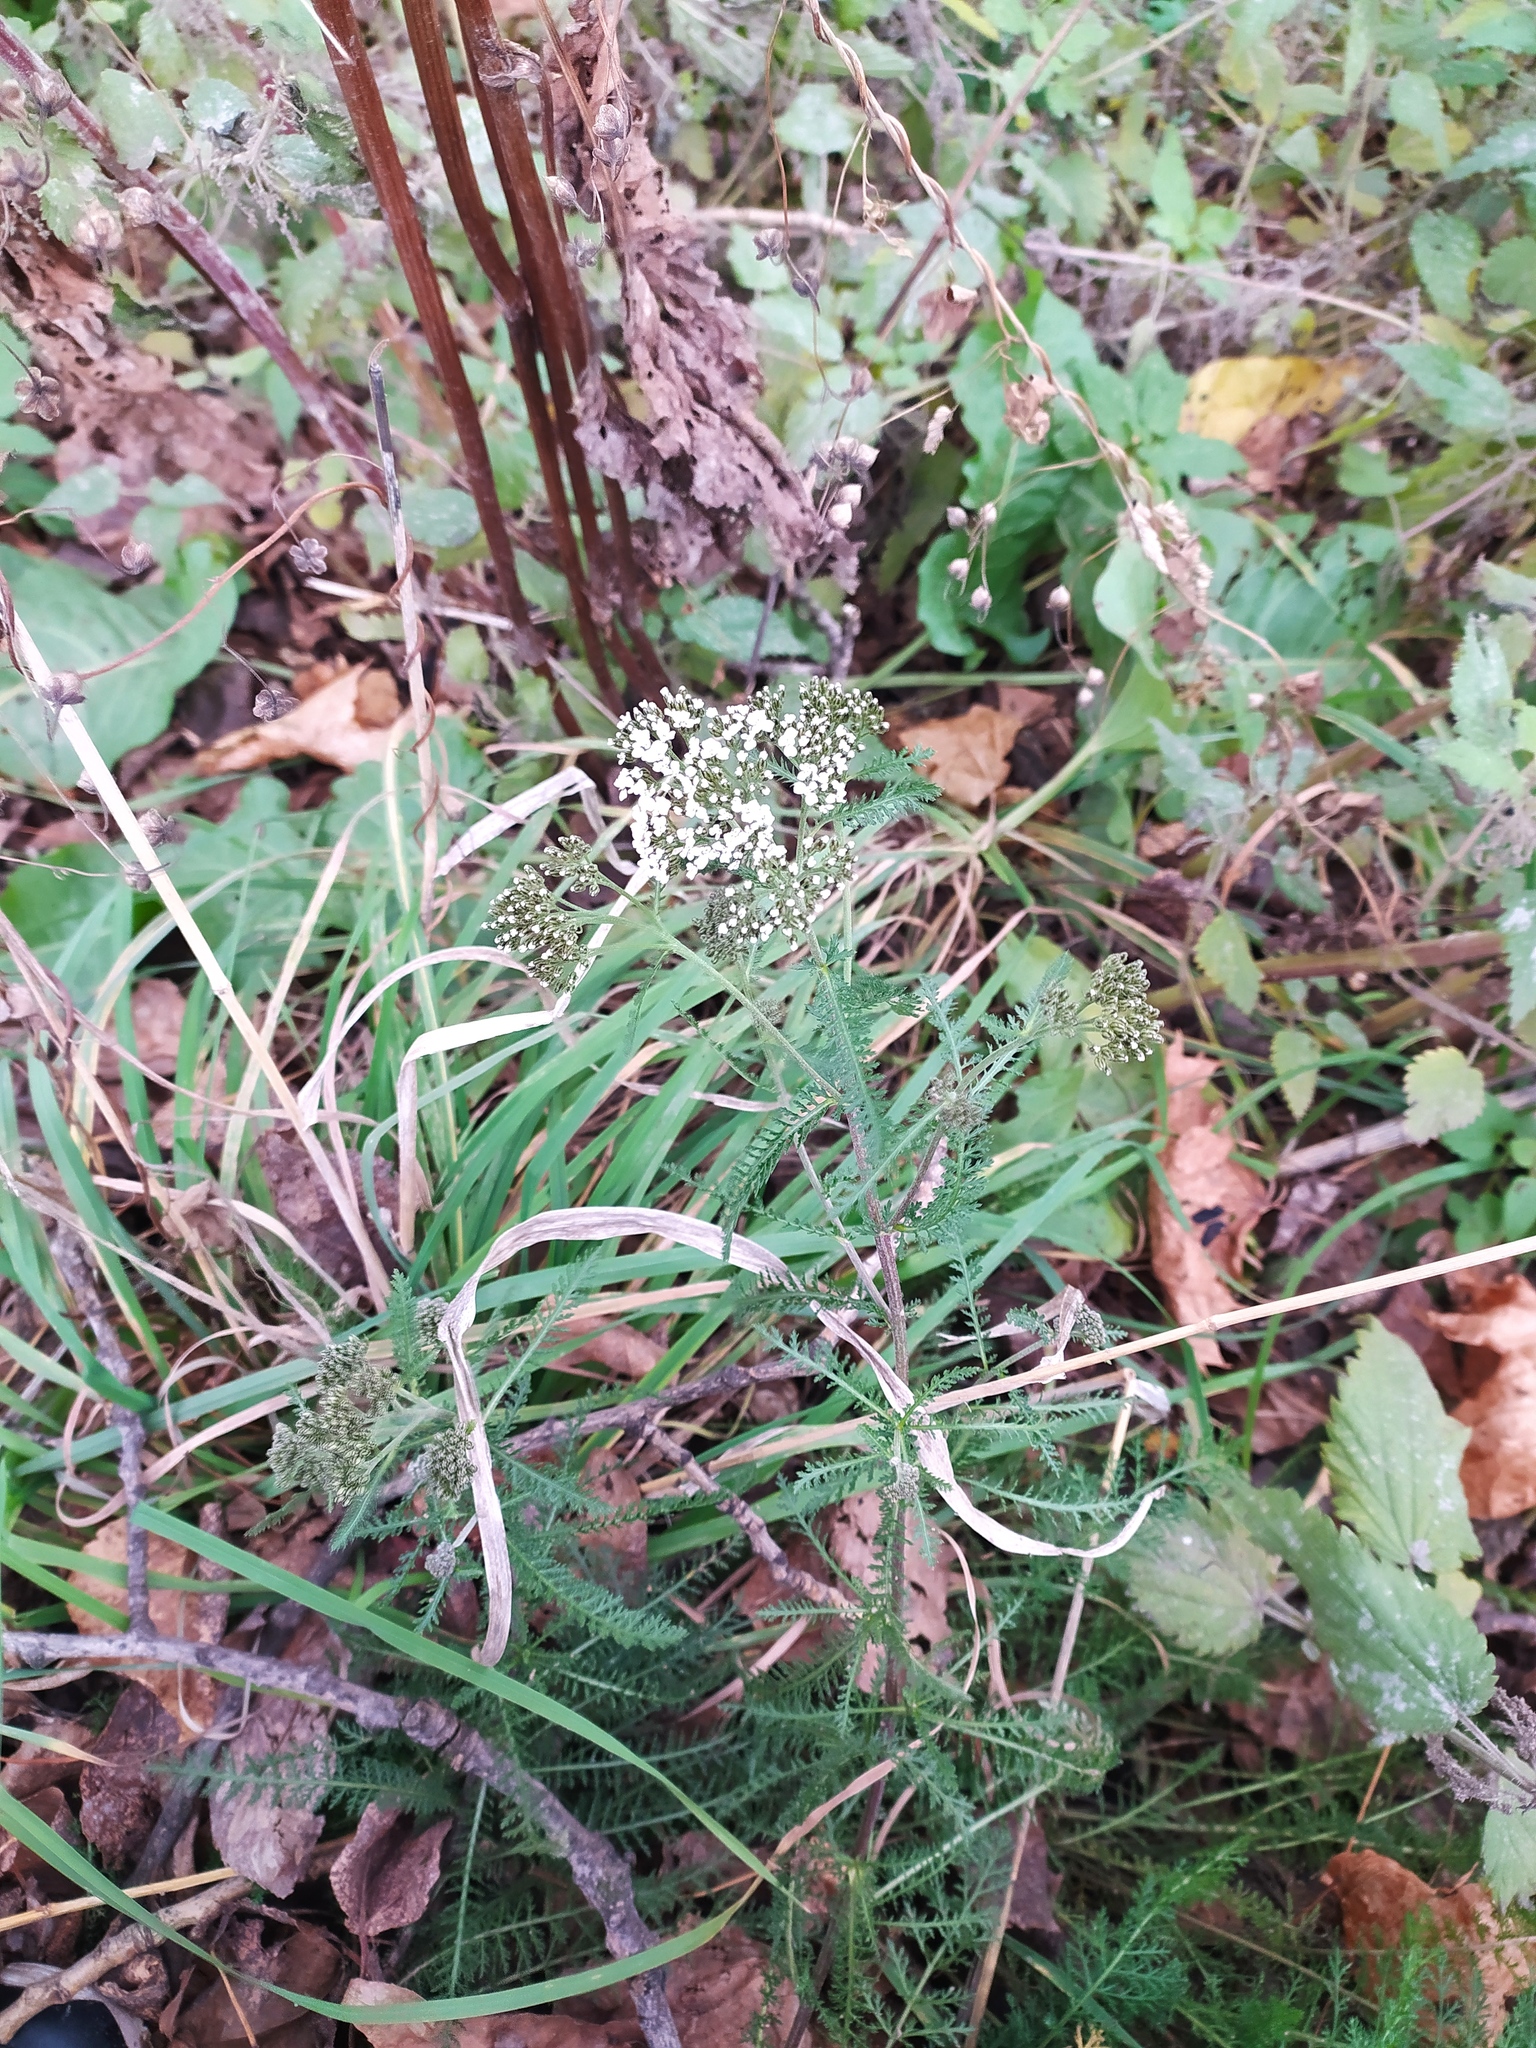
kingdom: Plantae
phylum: Tracheophyta
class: Magnoliopsida
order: Asterales
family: Asteraceae
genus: Achillea
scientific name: Achillea millefolium
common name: Yarrow
